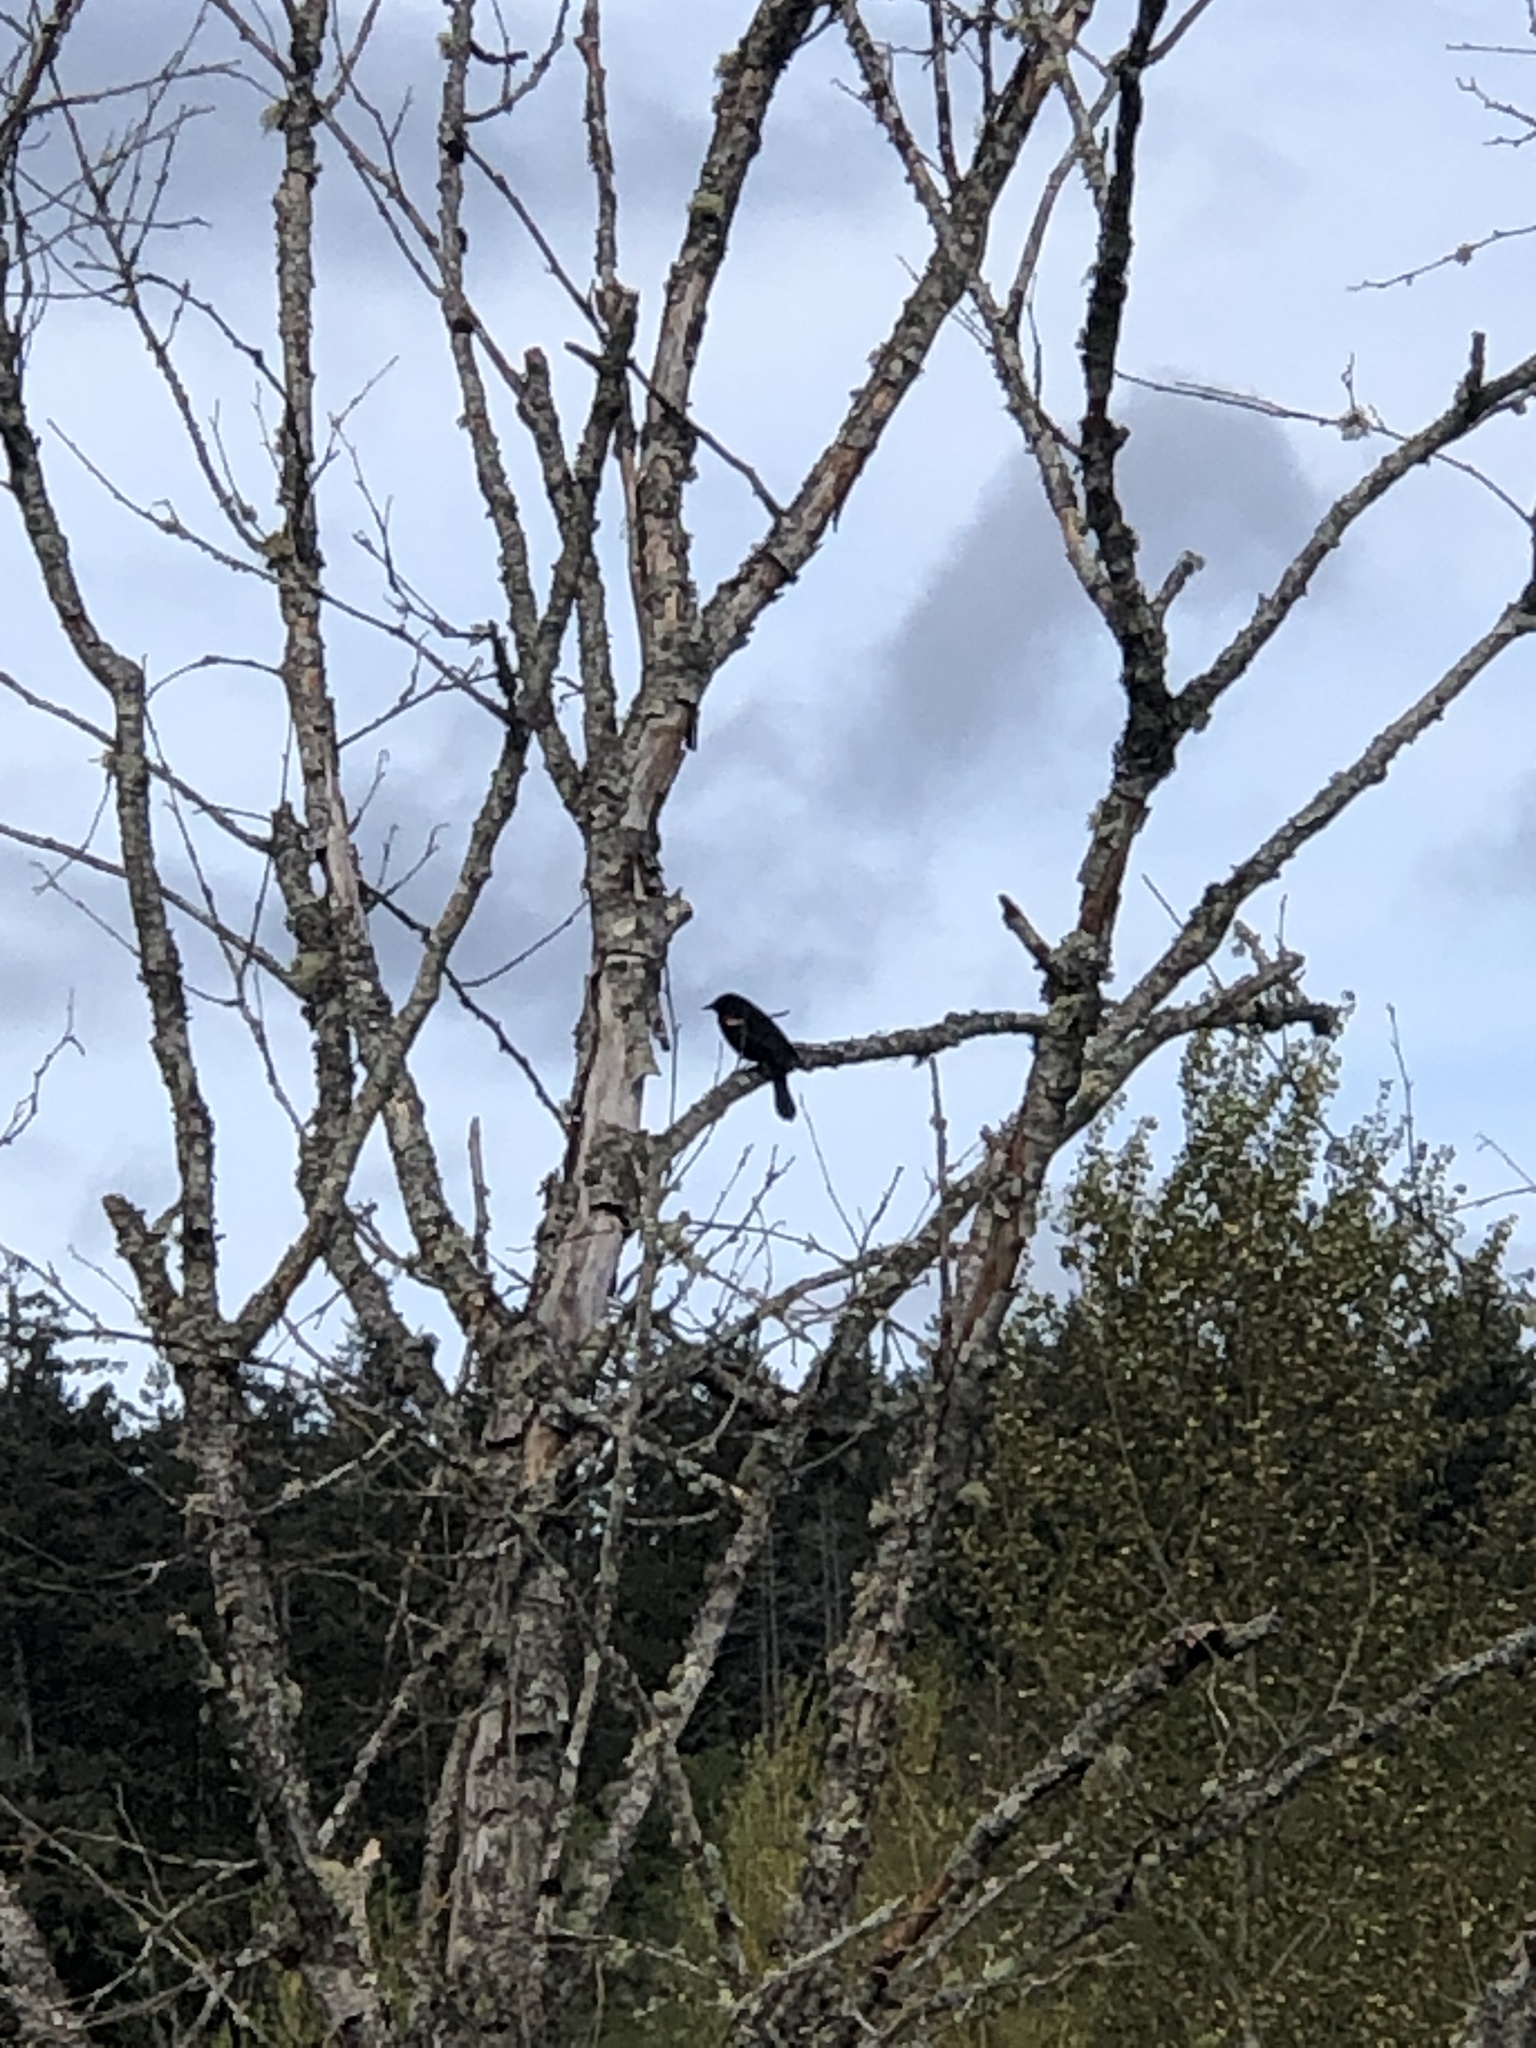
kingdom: Animalia
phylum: Chordata
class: Aves
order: Passeriformes
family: Icteridae
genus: Agelaius
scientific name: Agelaius phoeniceus
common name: Red-winged blackbird
